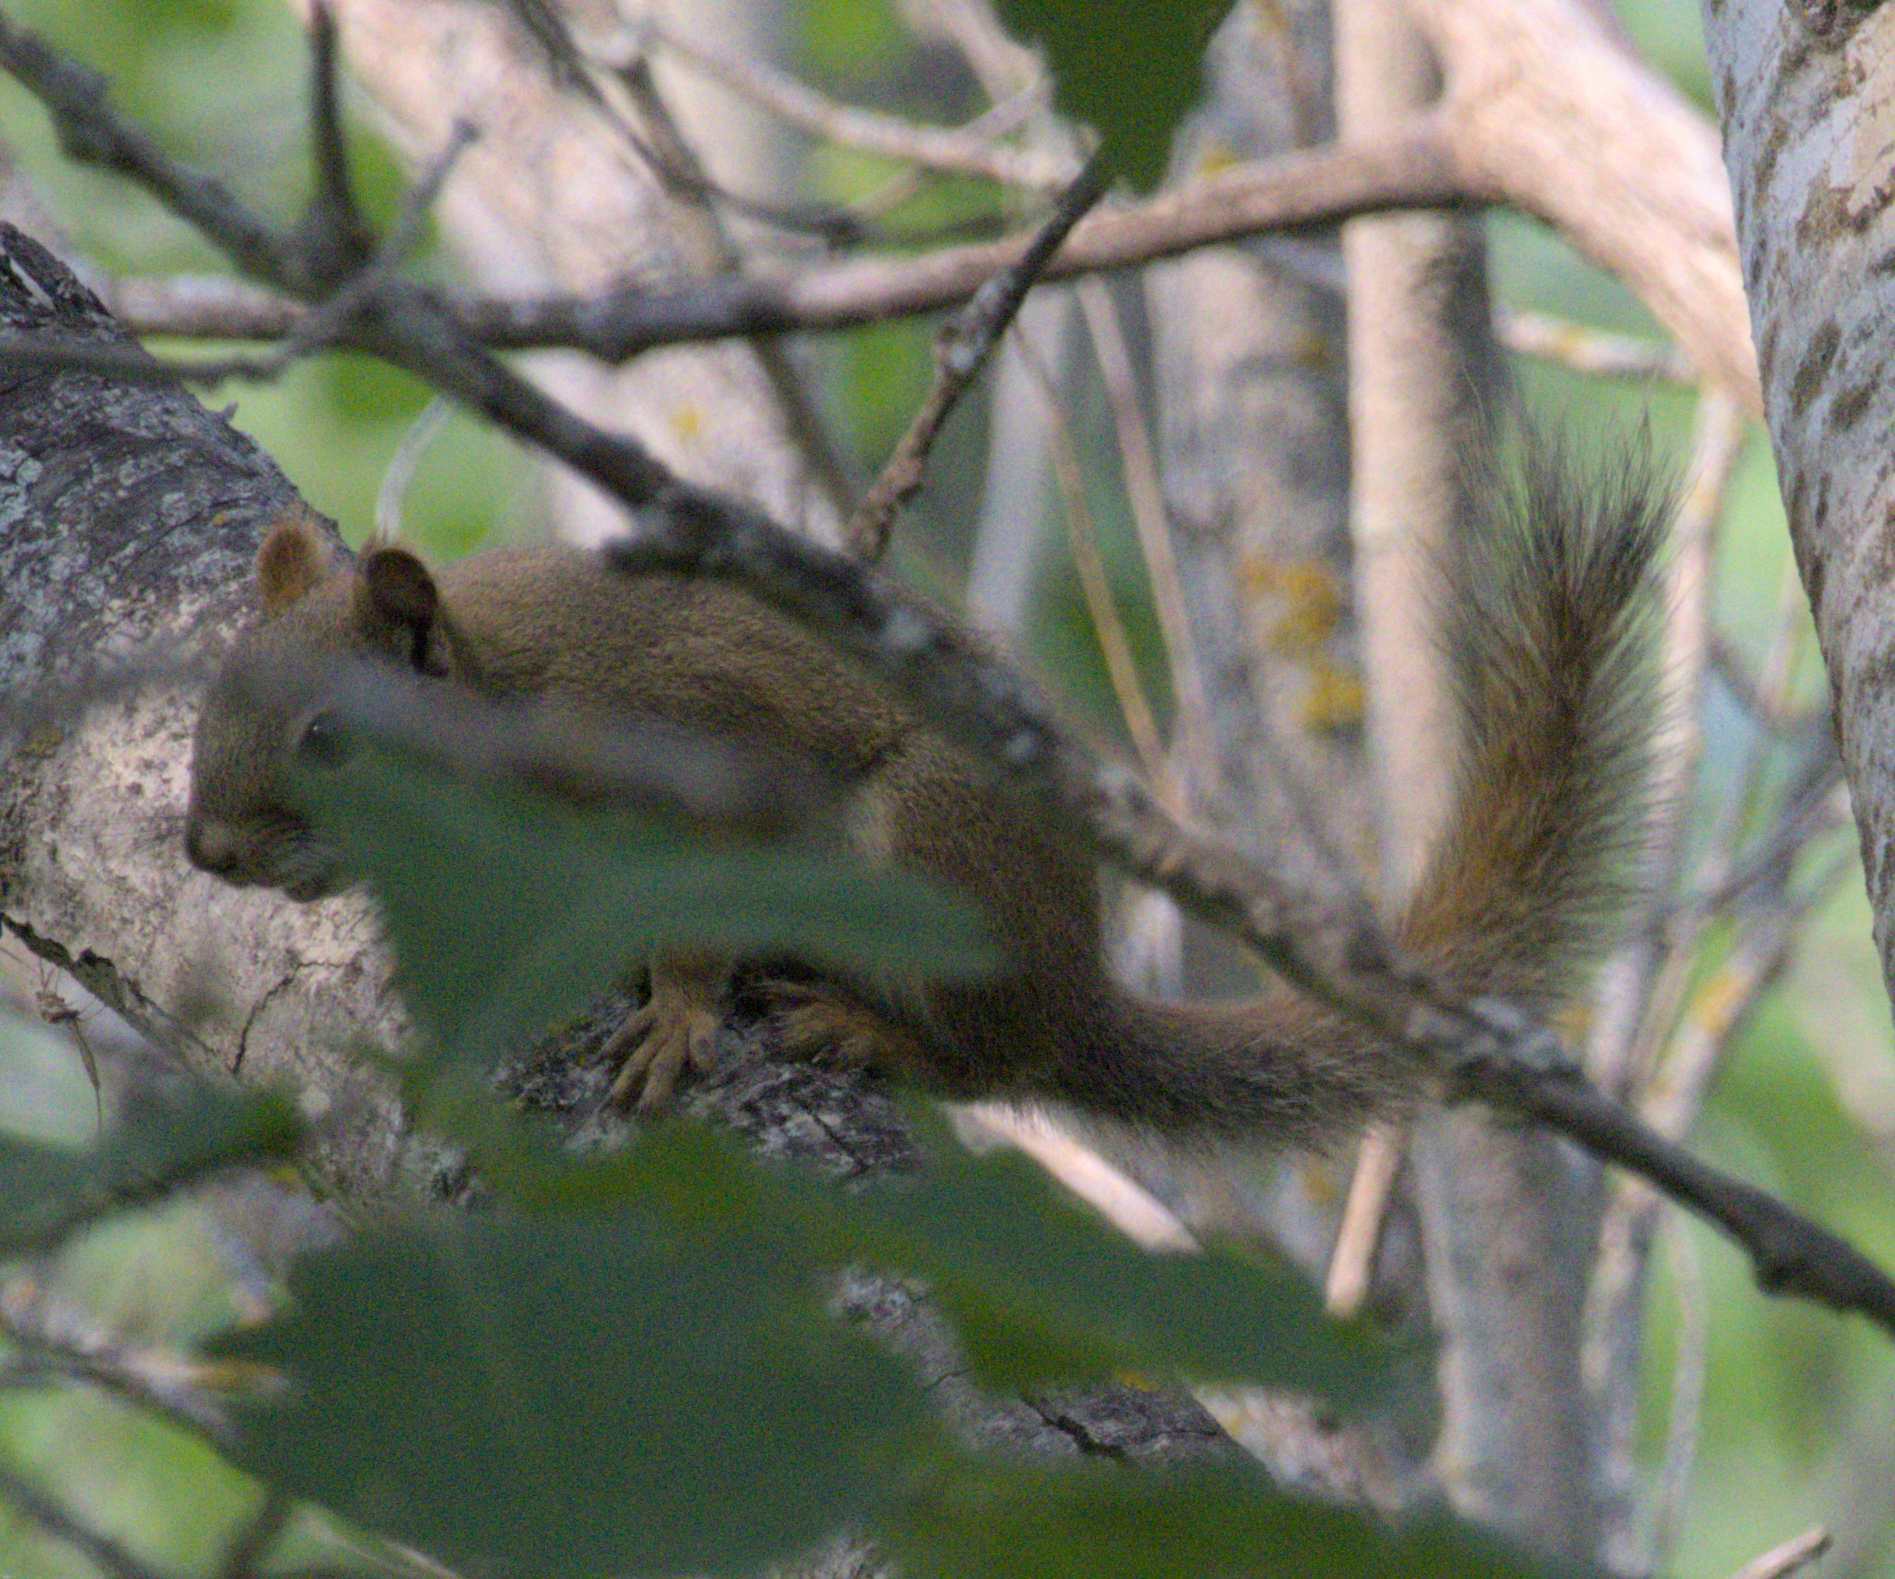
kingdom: Animalia
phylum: Chordata
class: Mammalia
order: Rodentia
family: Sciuridae
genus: Tamiasciurus
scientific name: Tamiasciurus hudsonicus
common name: Red squirrel
